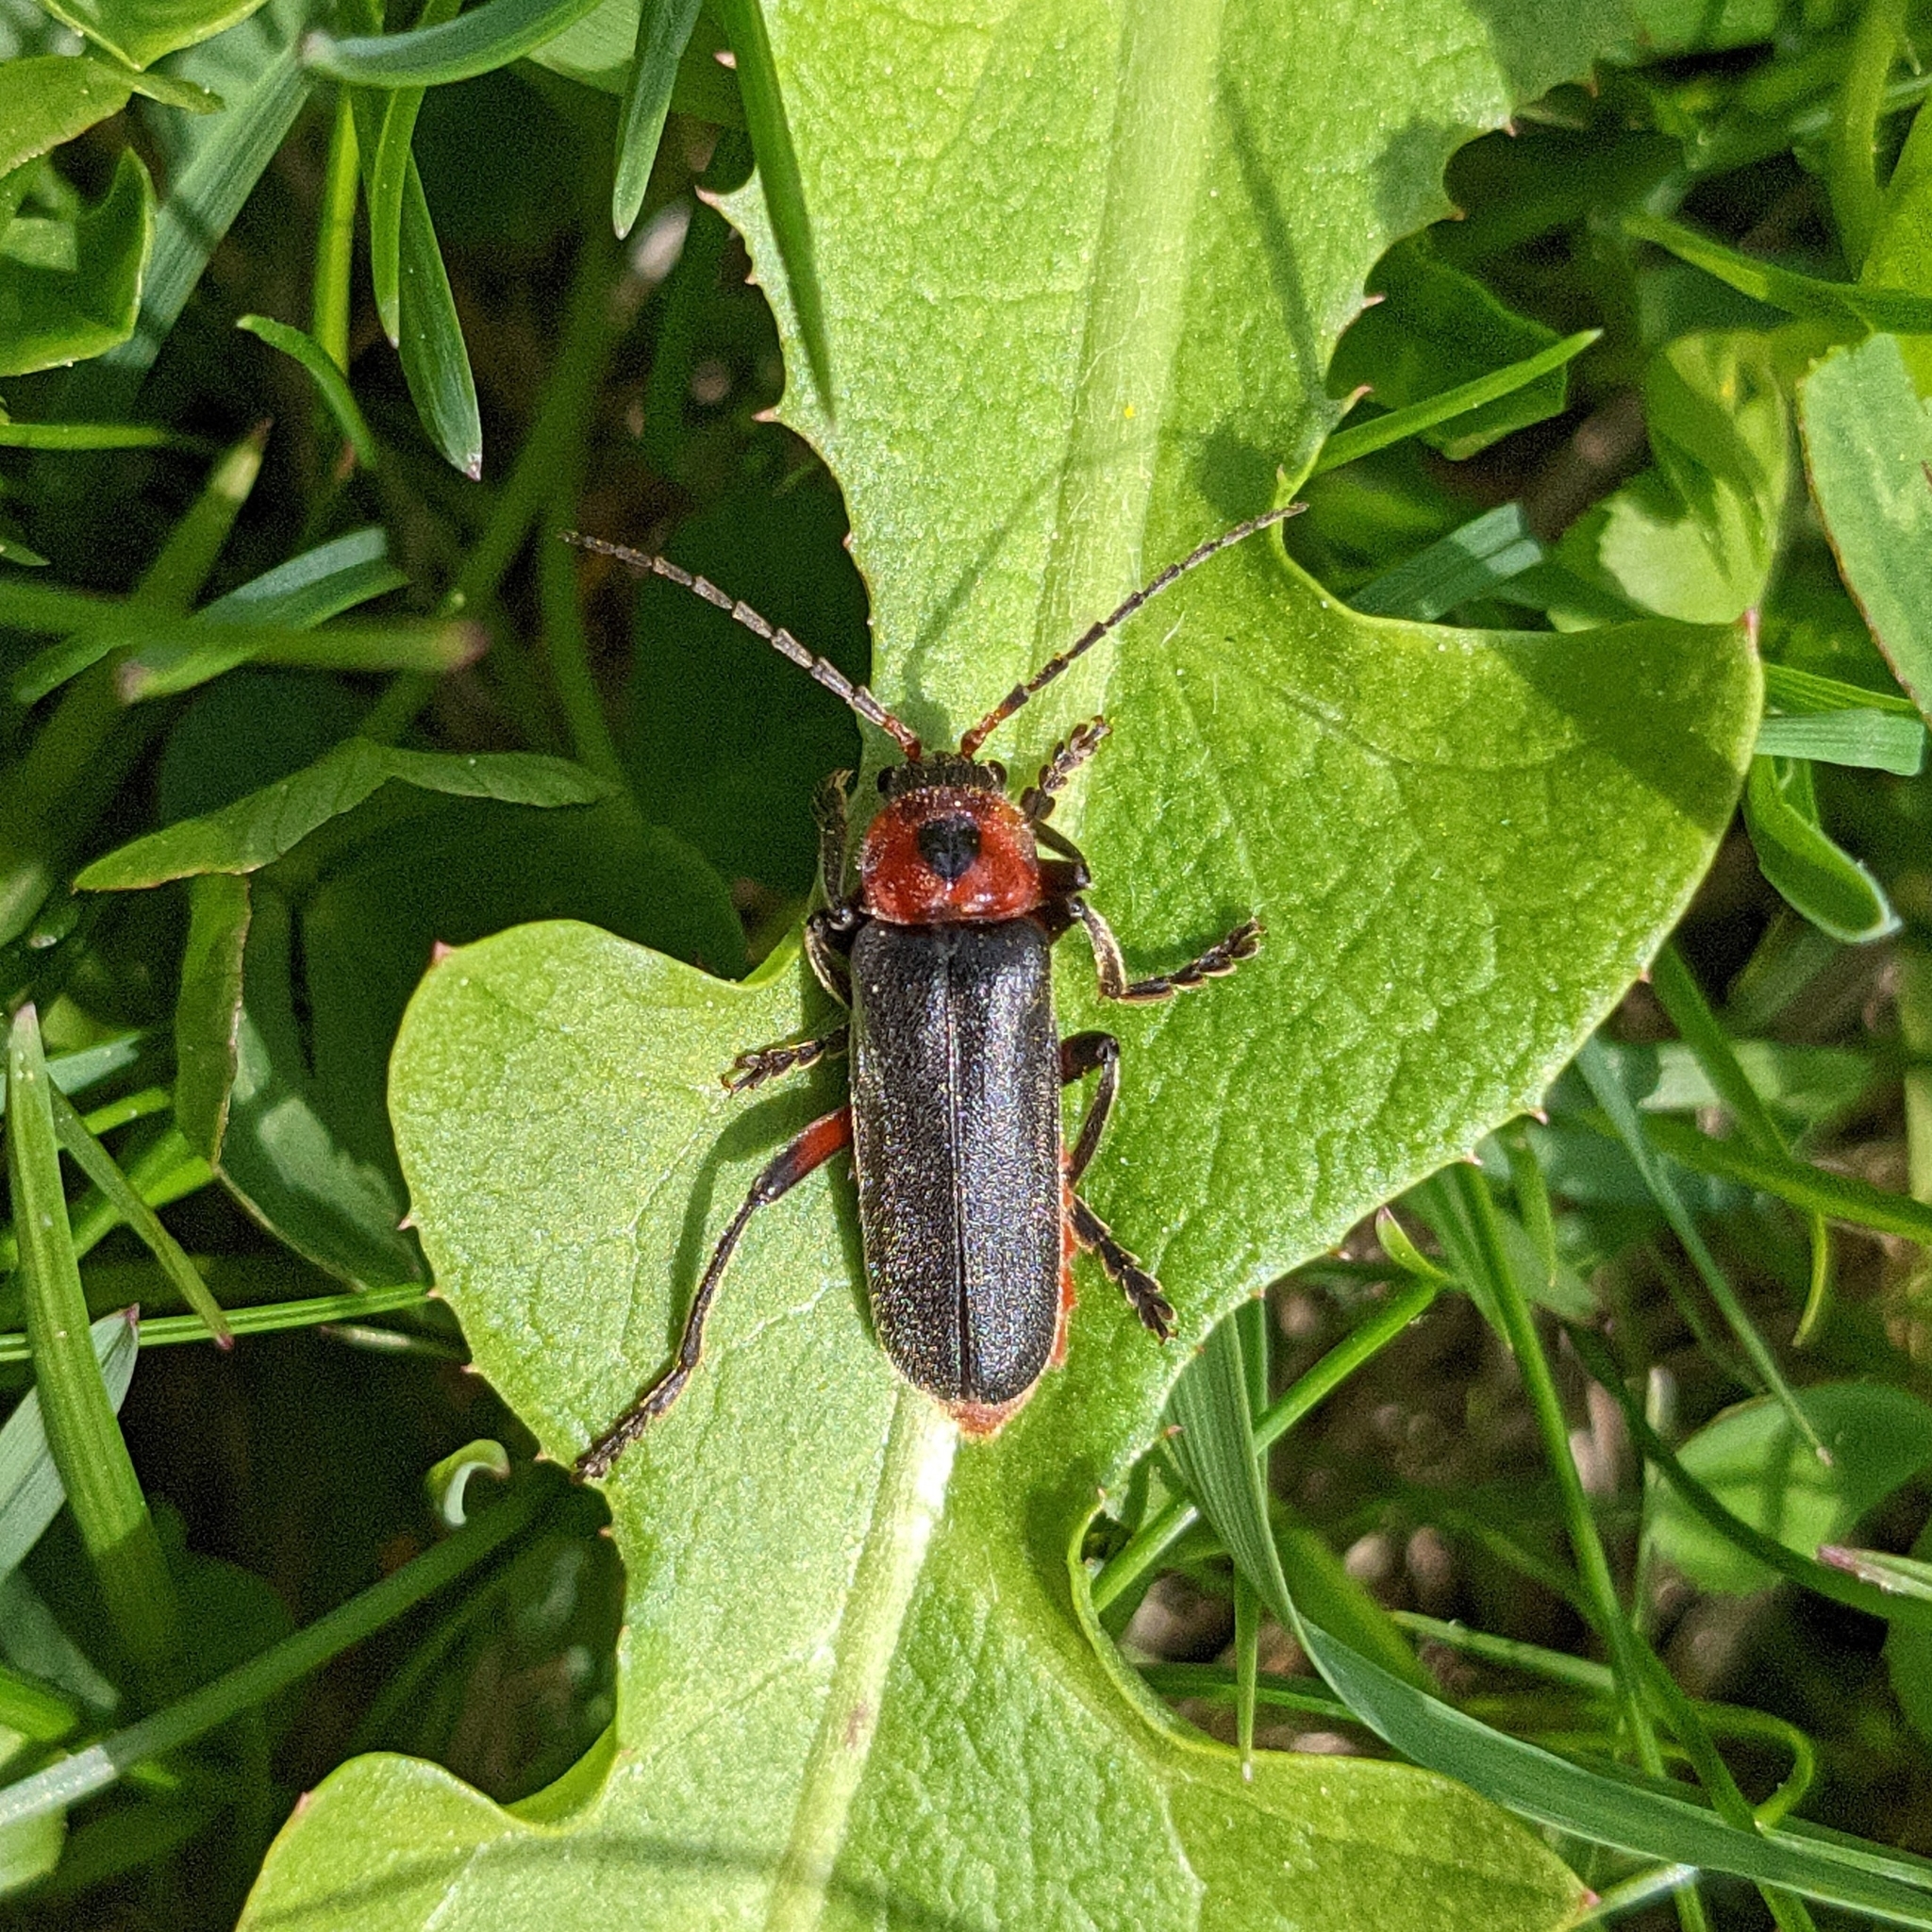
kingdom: Animalia
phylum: Arthropoda
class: Insecta
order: Coleoptera
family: Cantharidae
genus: Cantharis
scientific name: Cantharis rustica
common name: Soldier beetle
